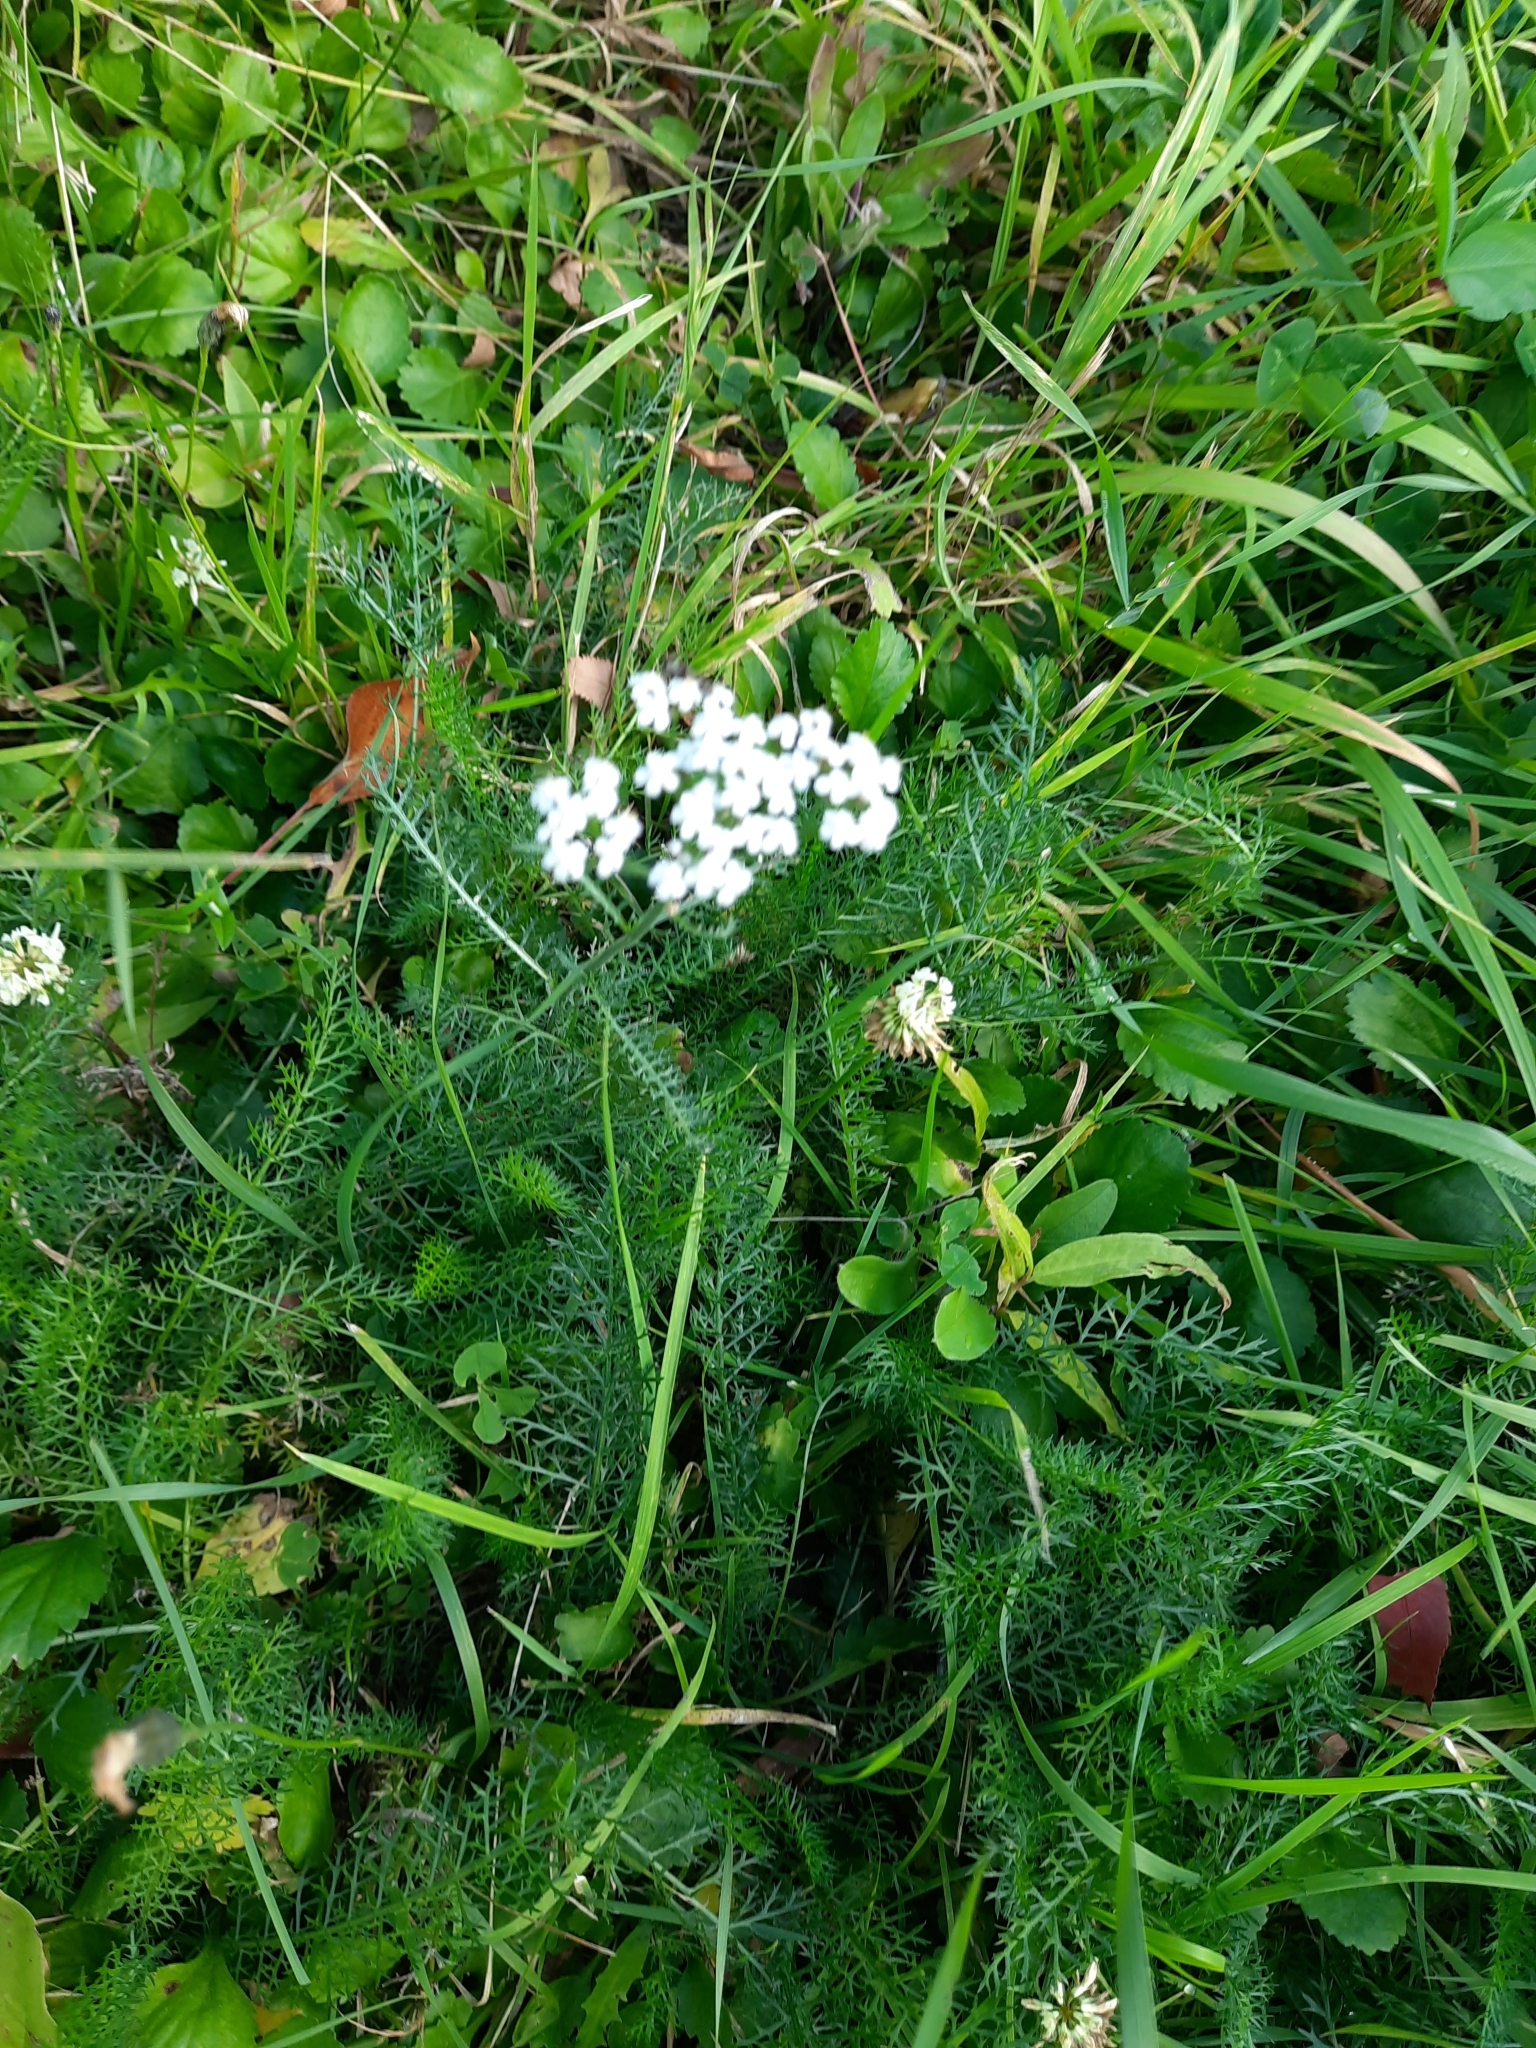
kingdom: Plantae
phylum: Tracheophyta
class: Magnoliopsida
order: Asterales
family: Asteraceae
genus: Achillea
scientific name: Achillea millefolium
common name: Yarrow
